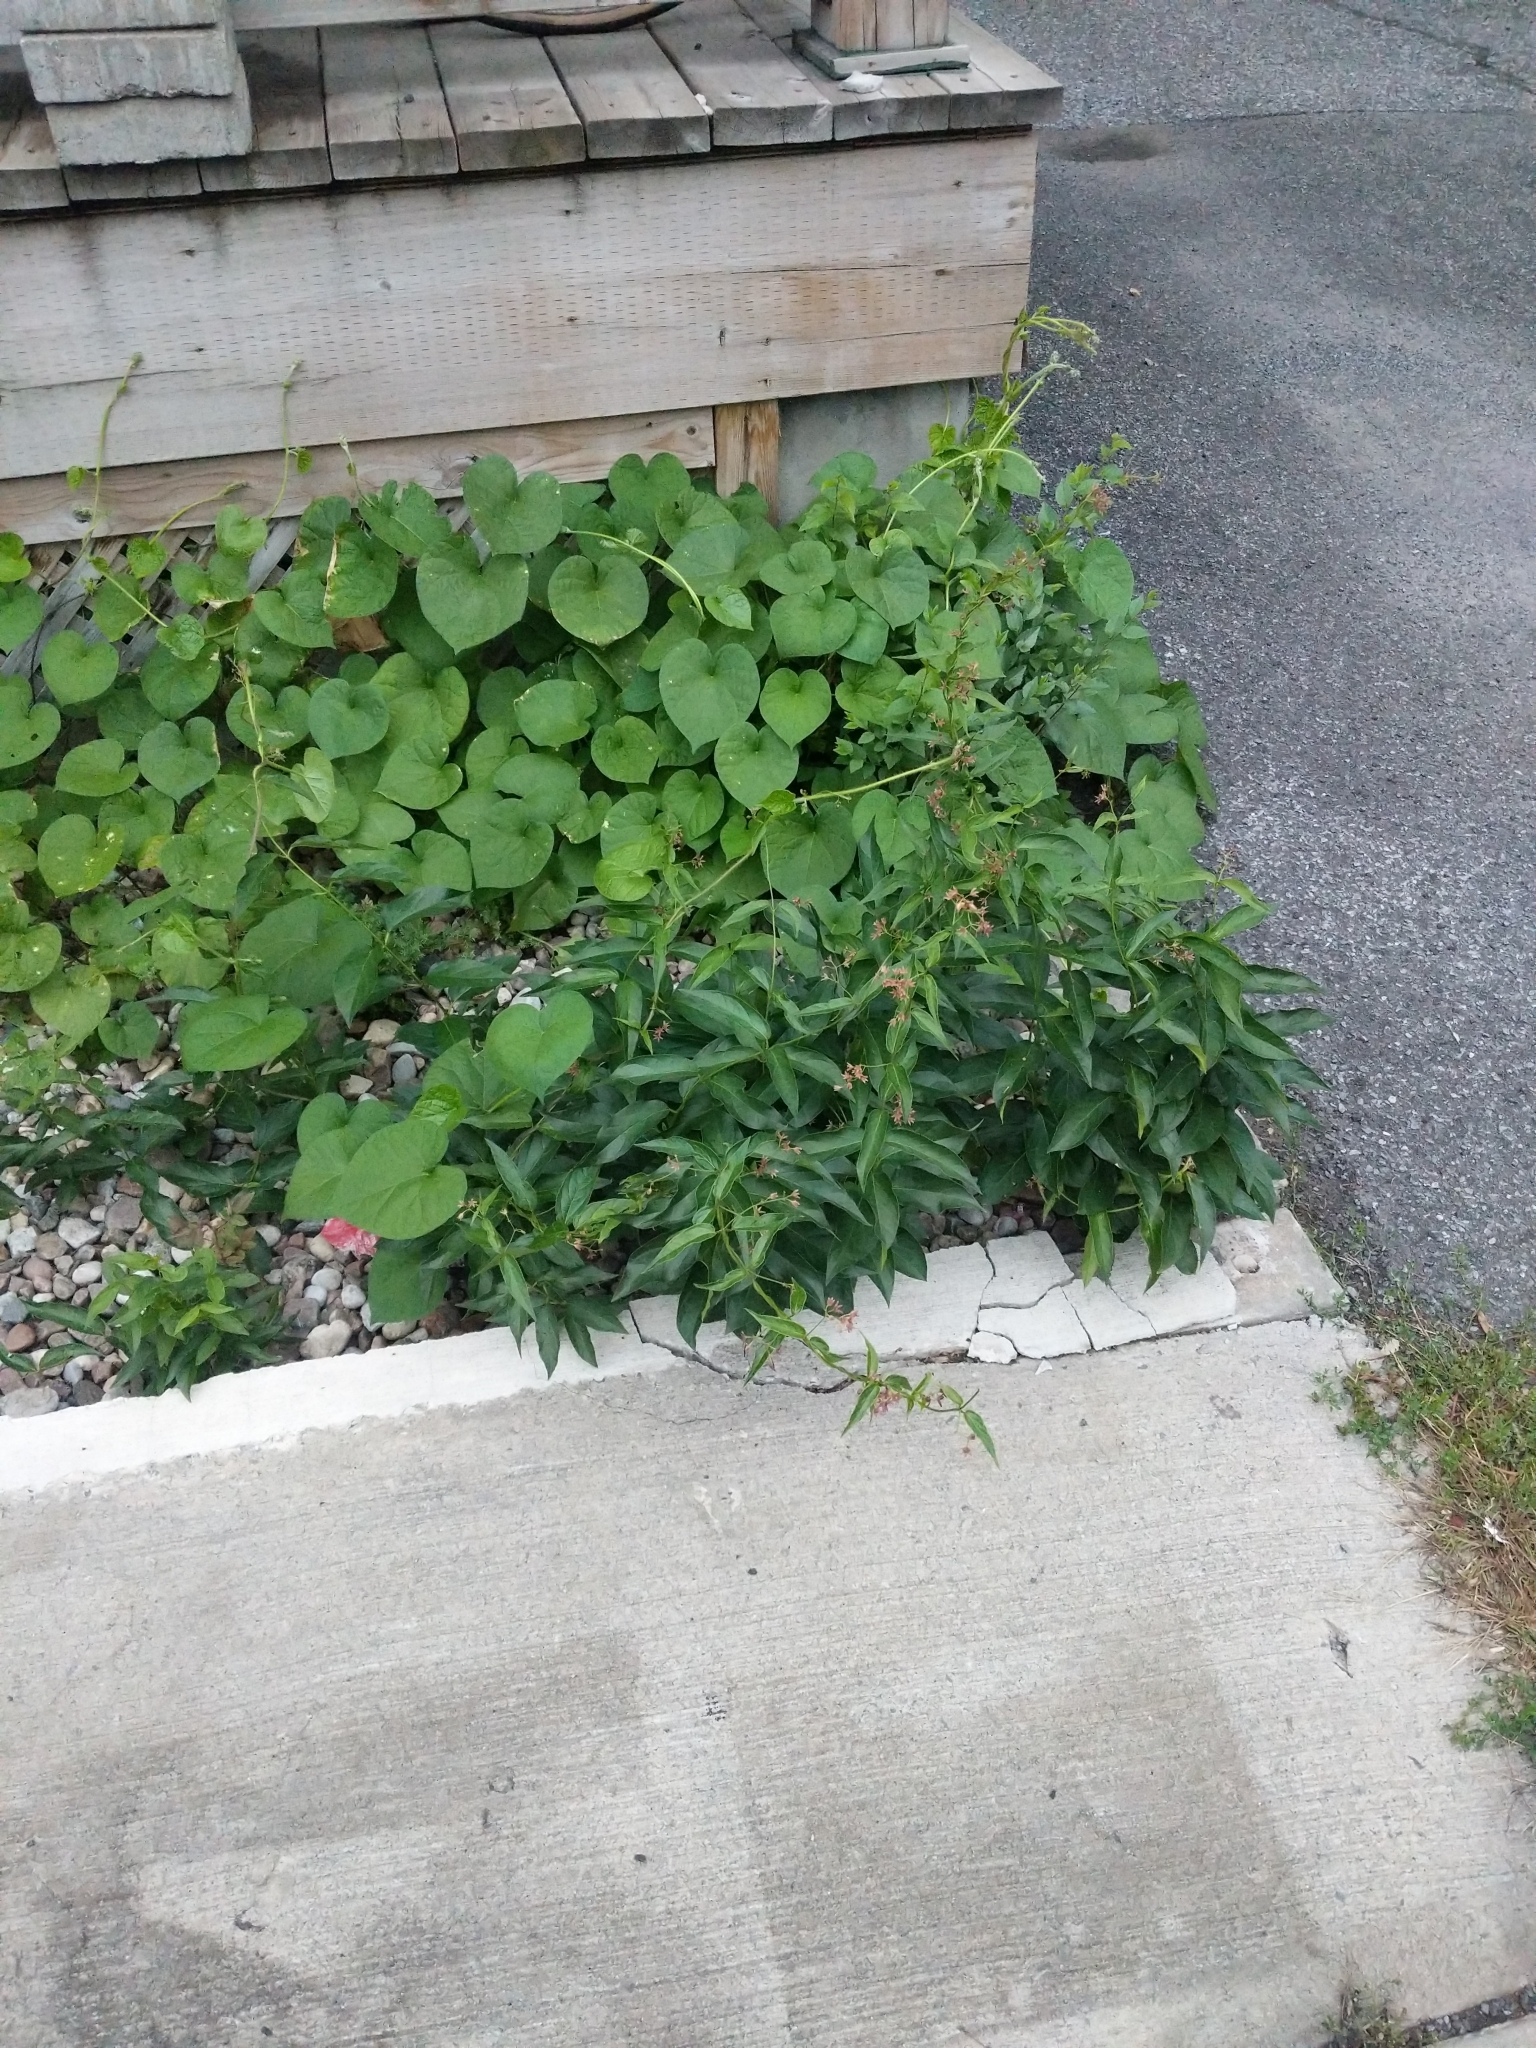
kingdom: Plantae
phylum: Tracheophyta
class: Magnoliopsida
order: Gentianales
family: Apocynaceae
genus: Vincetoxicum
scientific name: Vincetoxicum rossicum
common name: Dog-strangling vine
